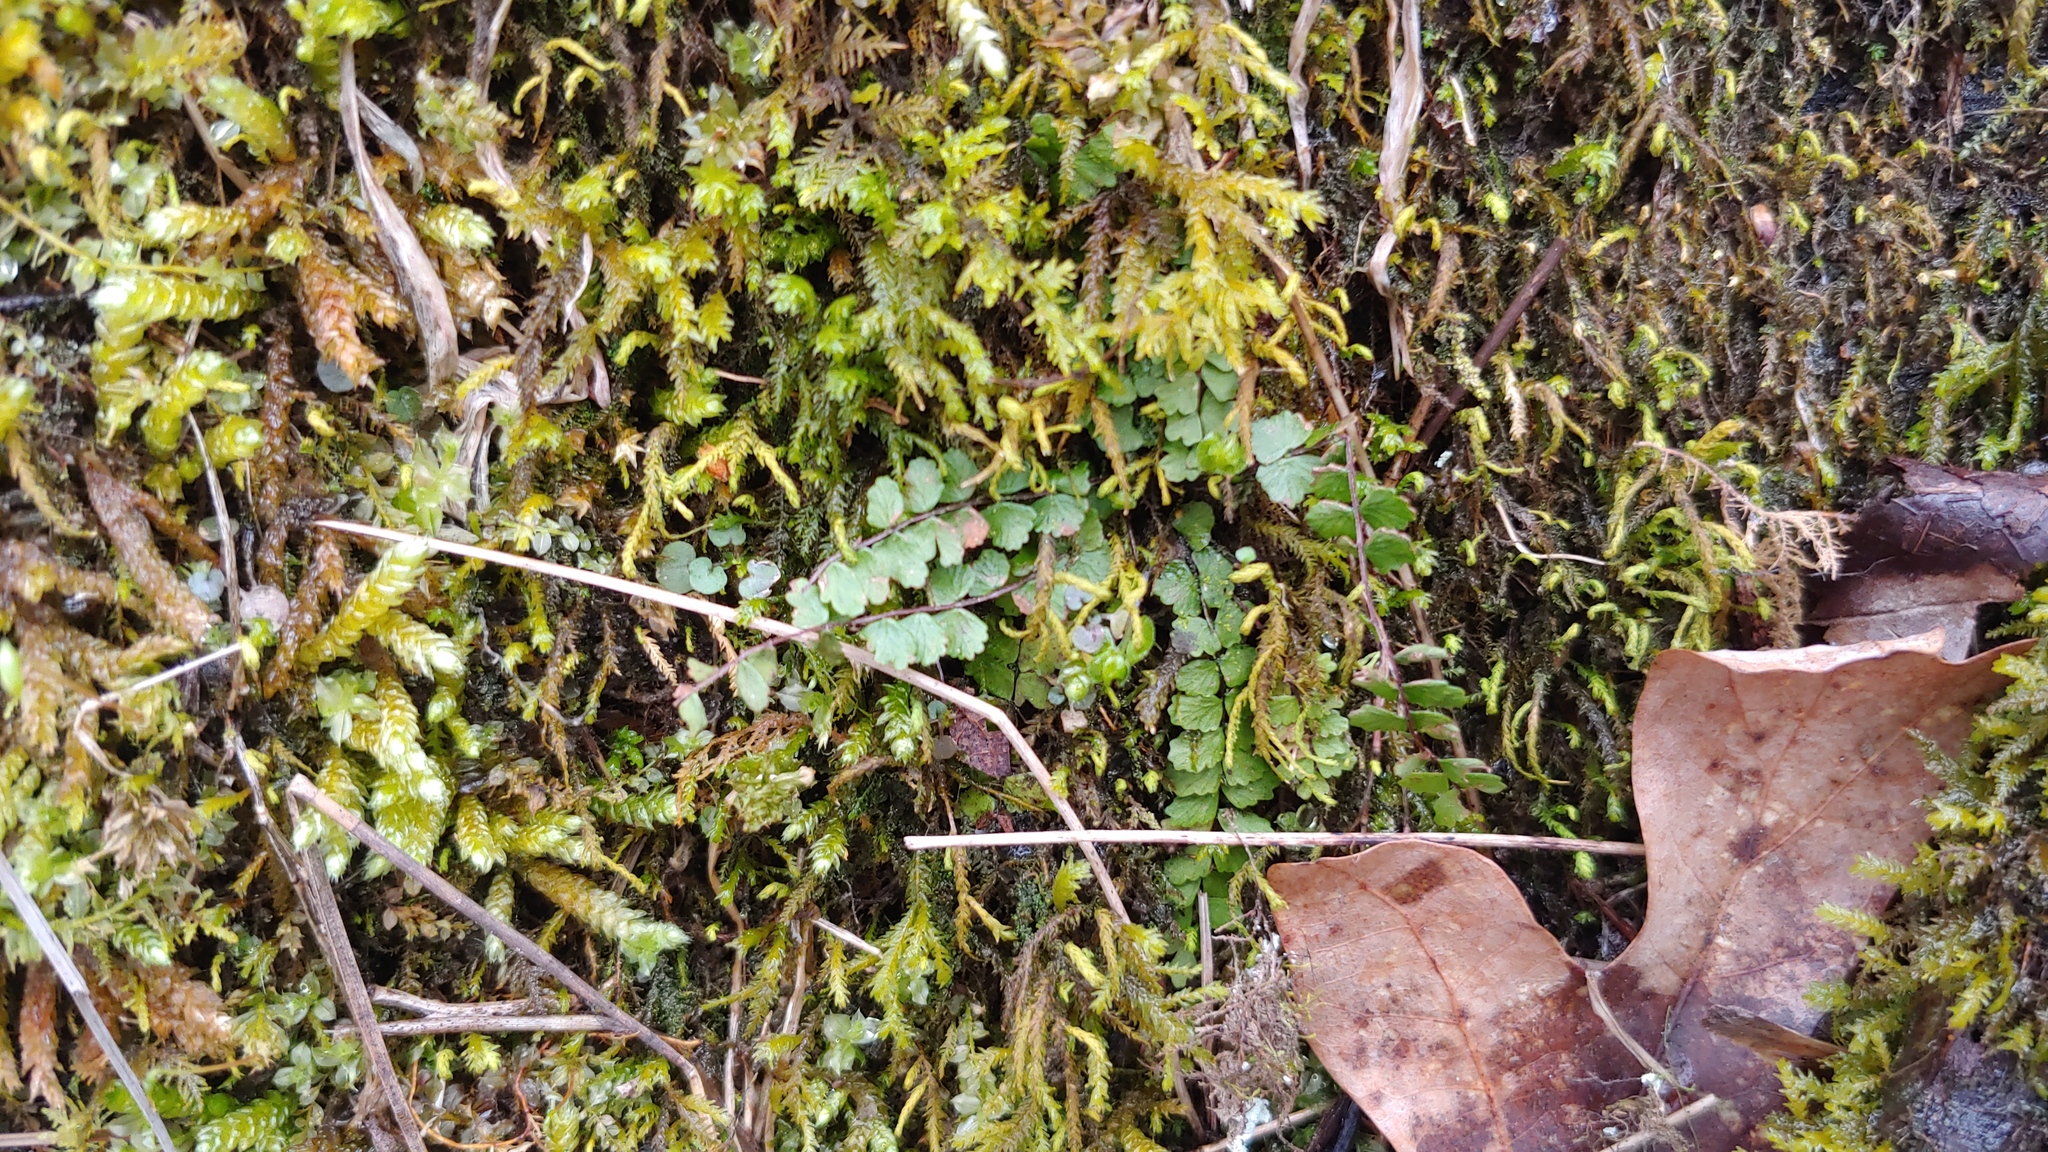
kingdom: Plantae
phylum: Tracheophyta
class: Polypodiopsida
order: Polypodiales
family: Aspleniaceae
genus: Asplenium
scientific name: Asplenium trichomanes
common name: Maidenhair spleenwort
